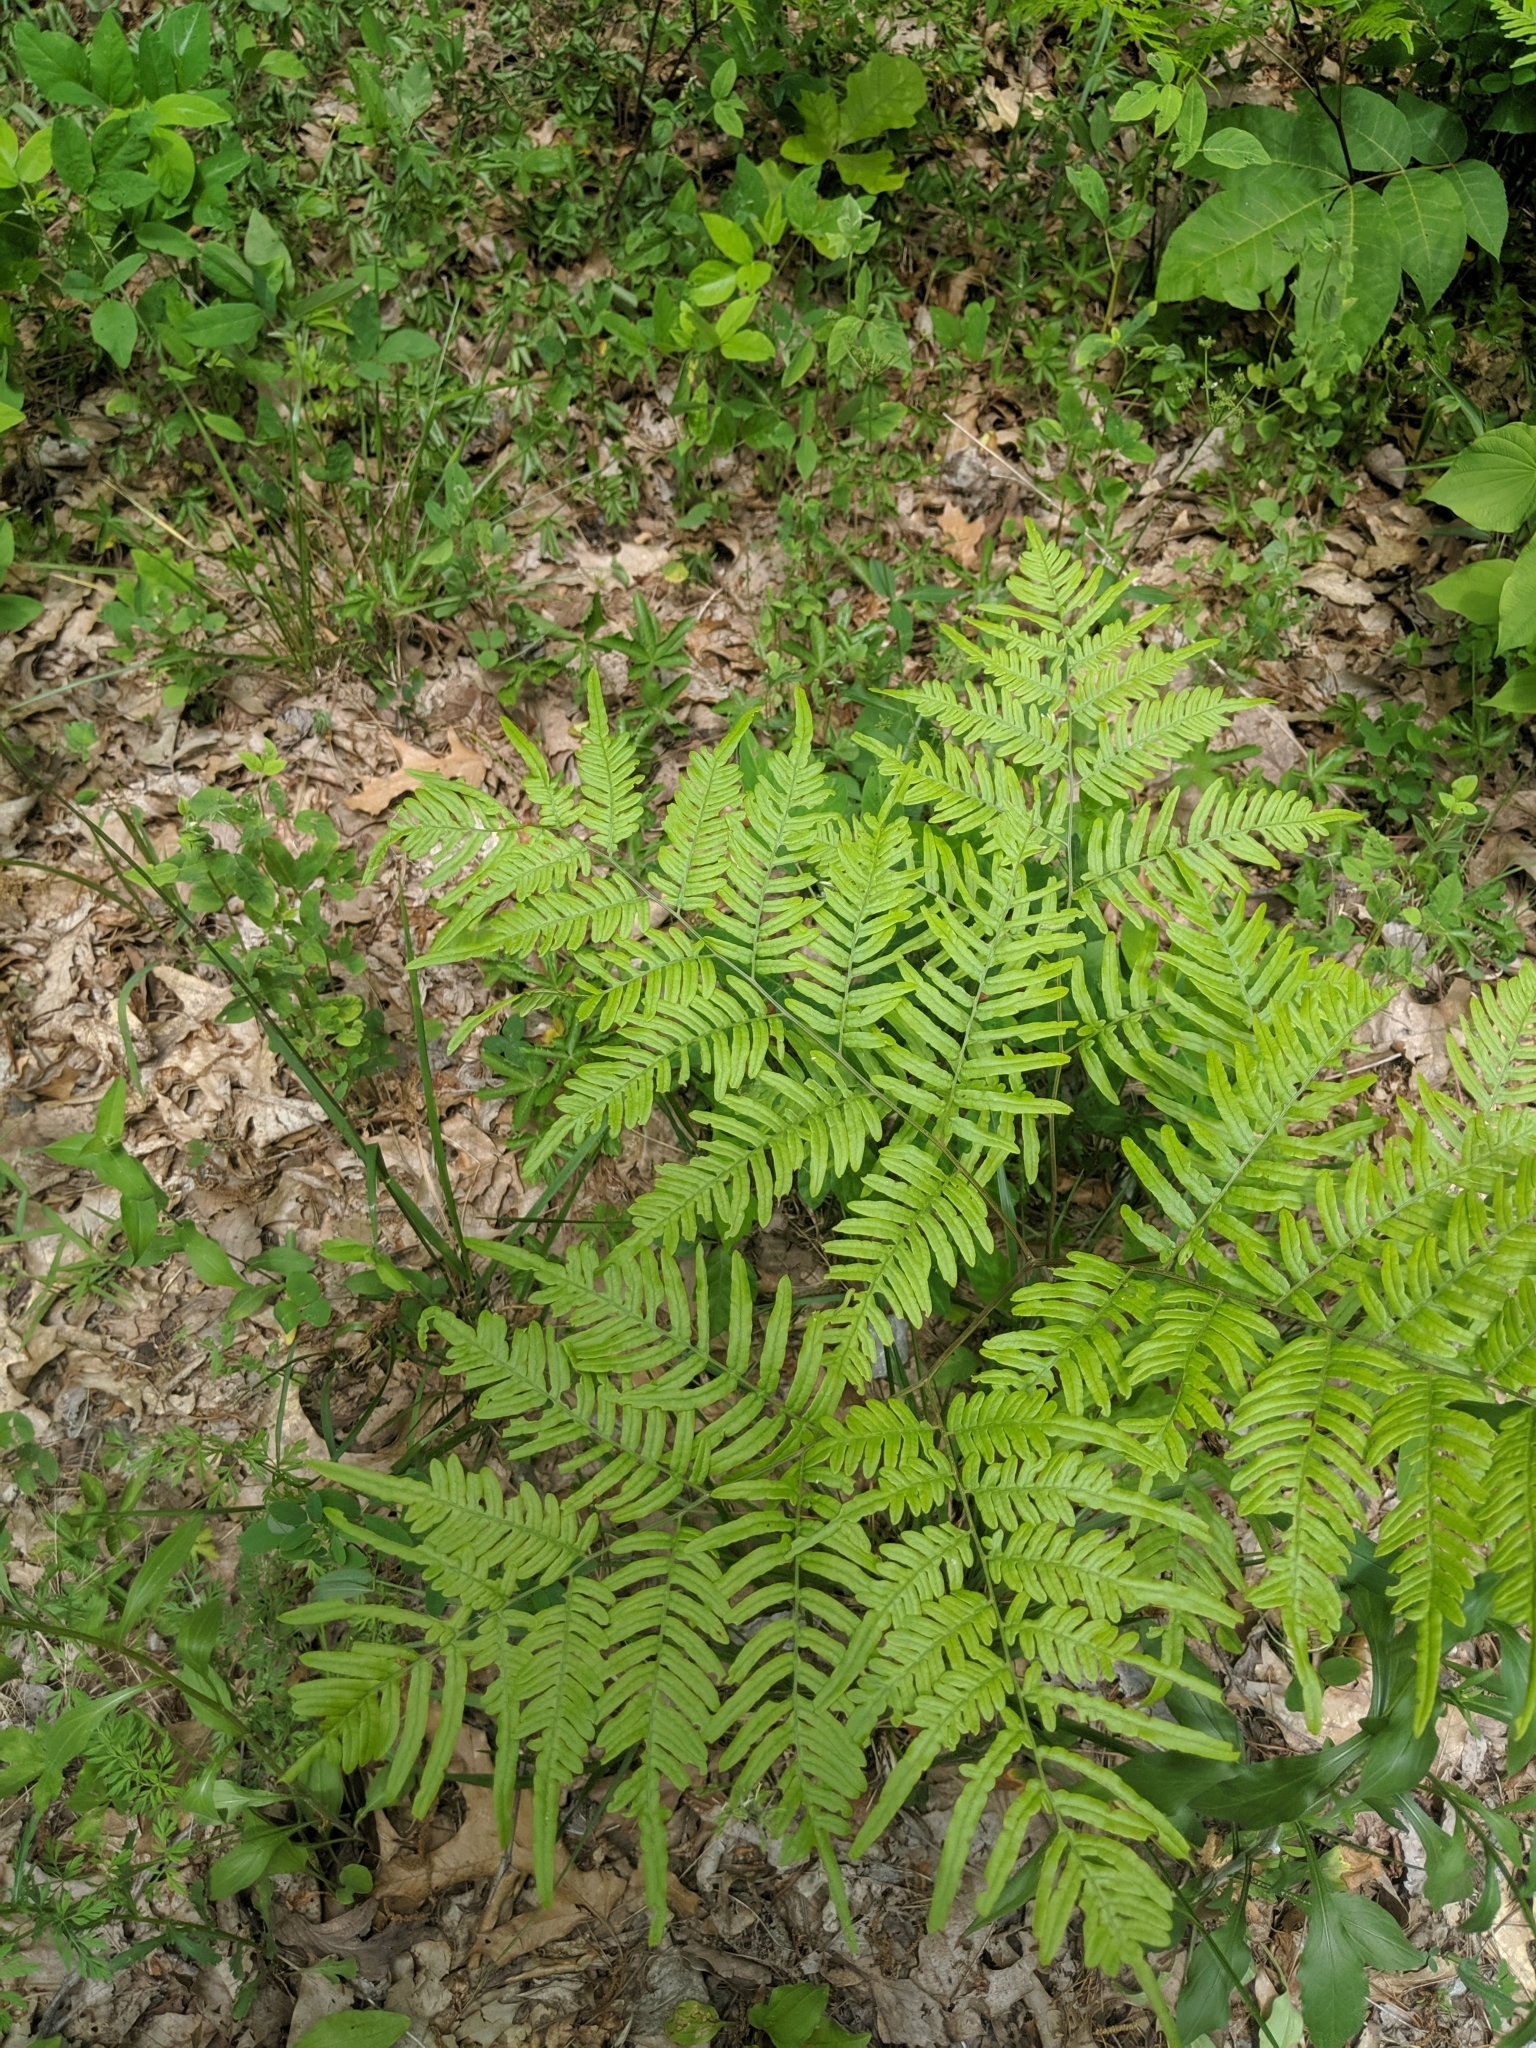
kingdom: Plantae
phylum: Tracheophyta
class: Polypodiopsida
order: Polypodiales
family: Dennstaedtiaceae
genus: Pteridium
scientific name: Pteridium aquilinum
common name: Bracken
